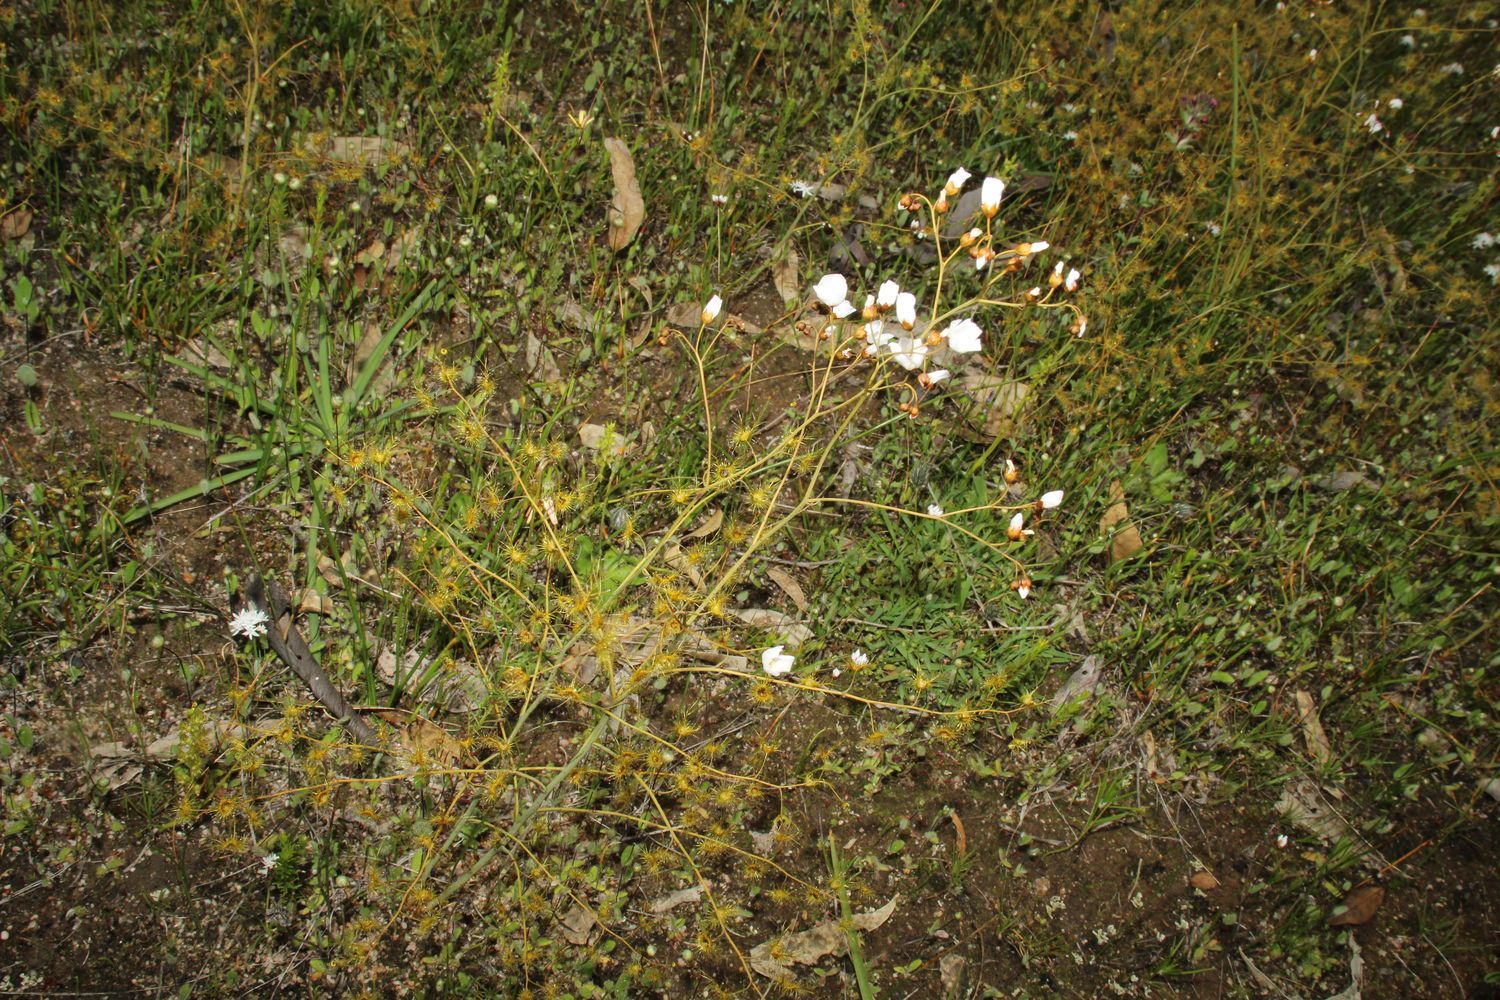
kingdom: Plantae
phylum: Tracheophyta
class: Magnoliopsida
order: Caryophyllales
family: Droseraceae
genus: Drosera
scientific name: Drosera gigantea
